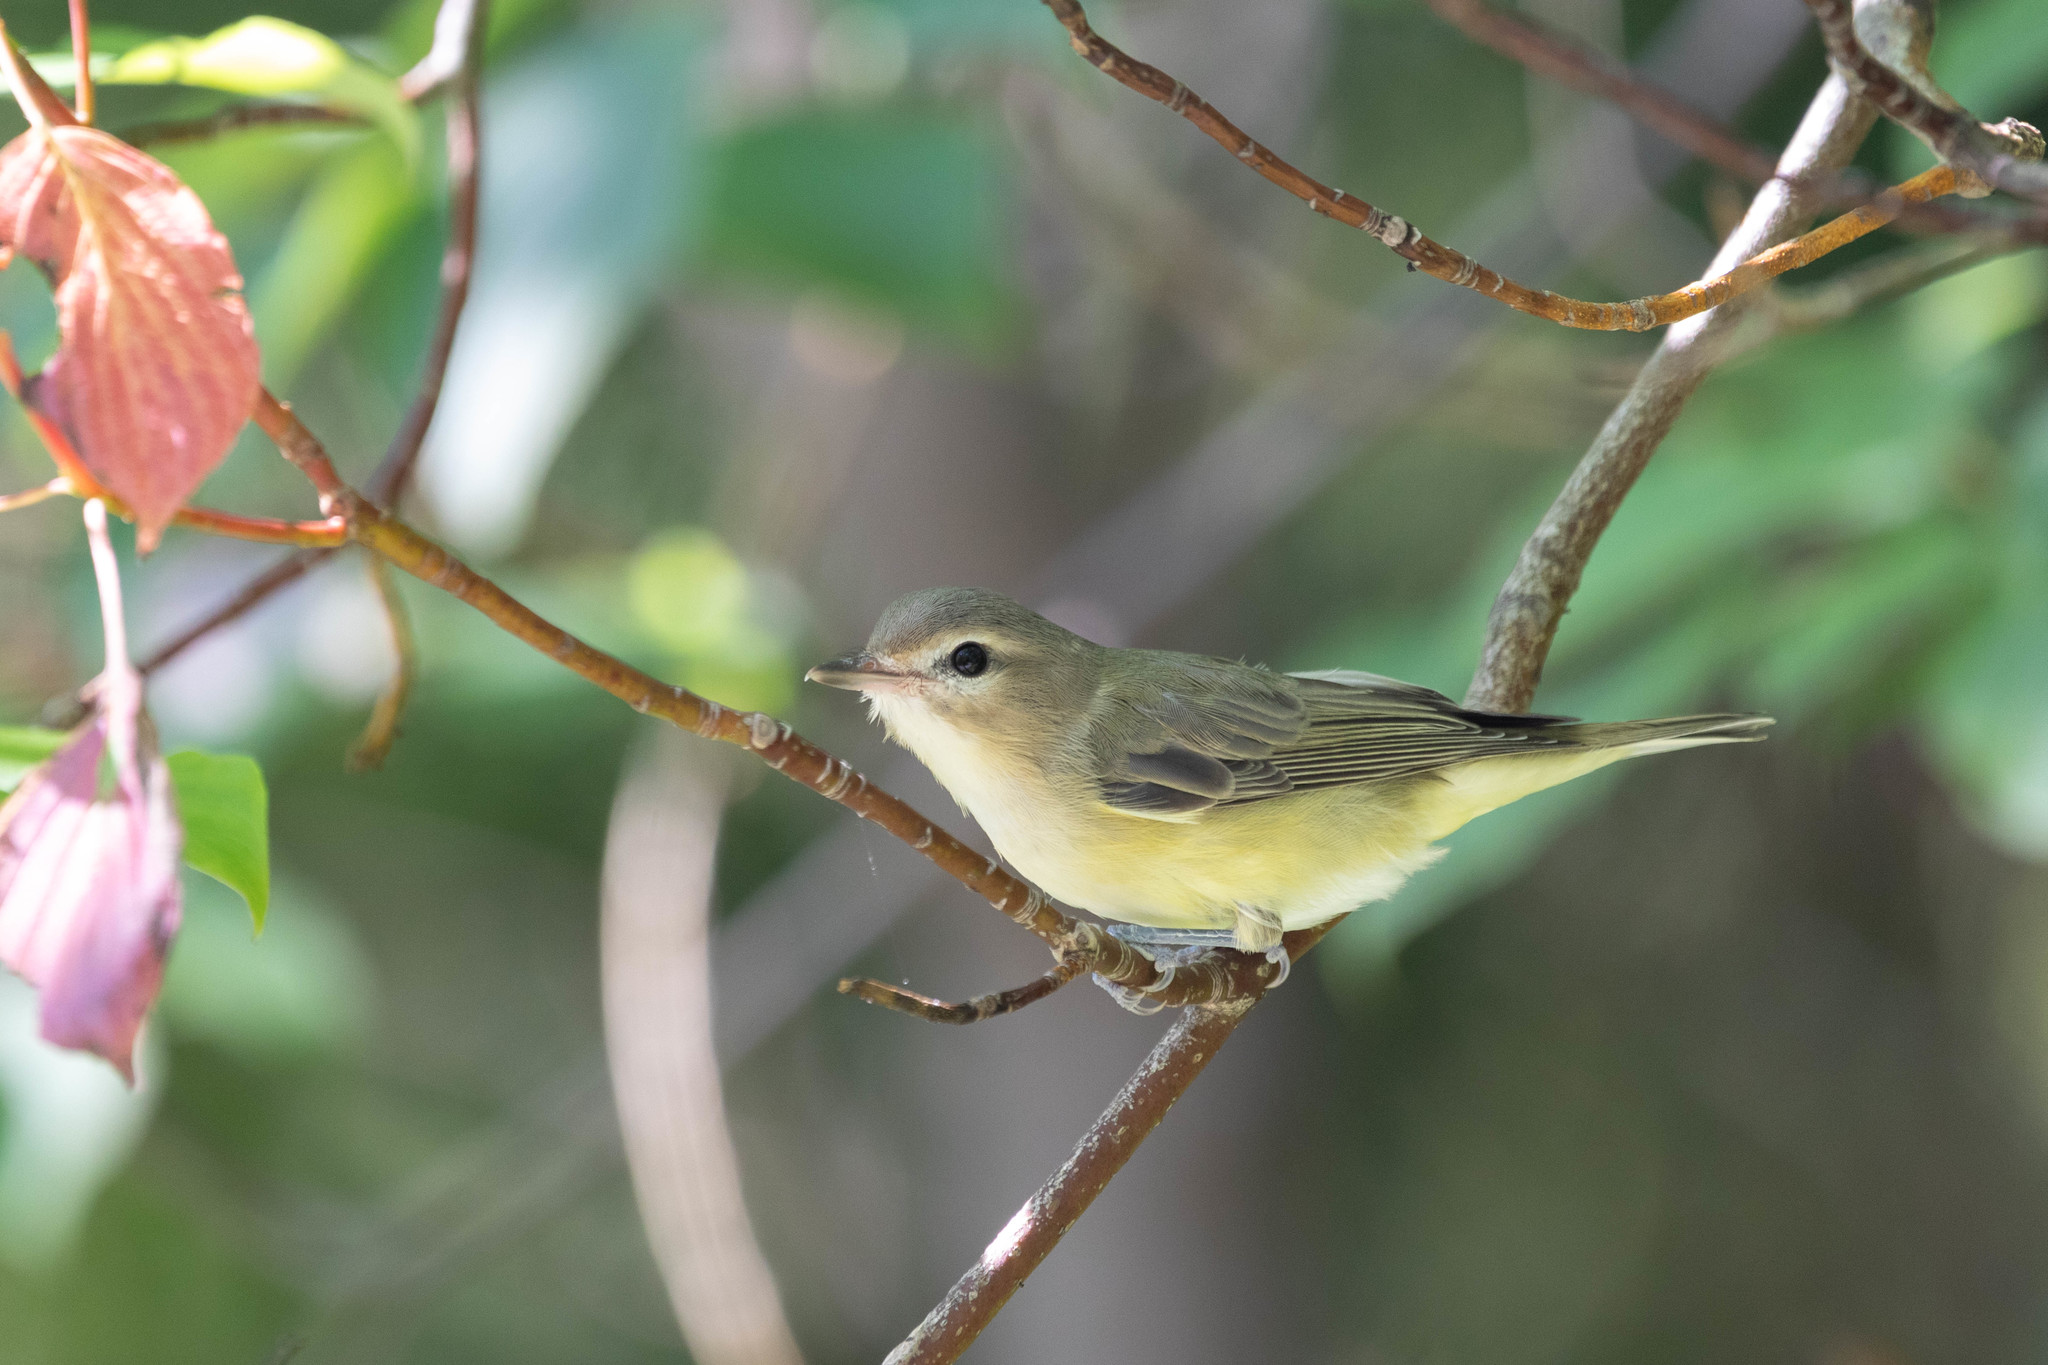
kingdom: Animalia
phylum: Chordata
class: Aves
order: Passeriformes
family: Vireonidae
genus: Vireo
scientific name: Vireo gilvus
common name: Warbling vireo
